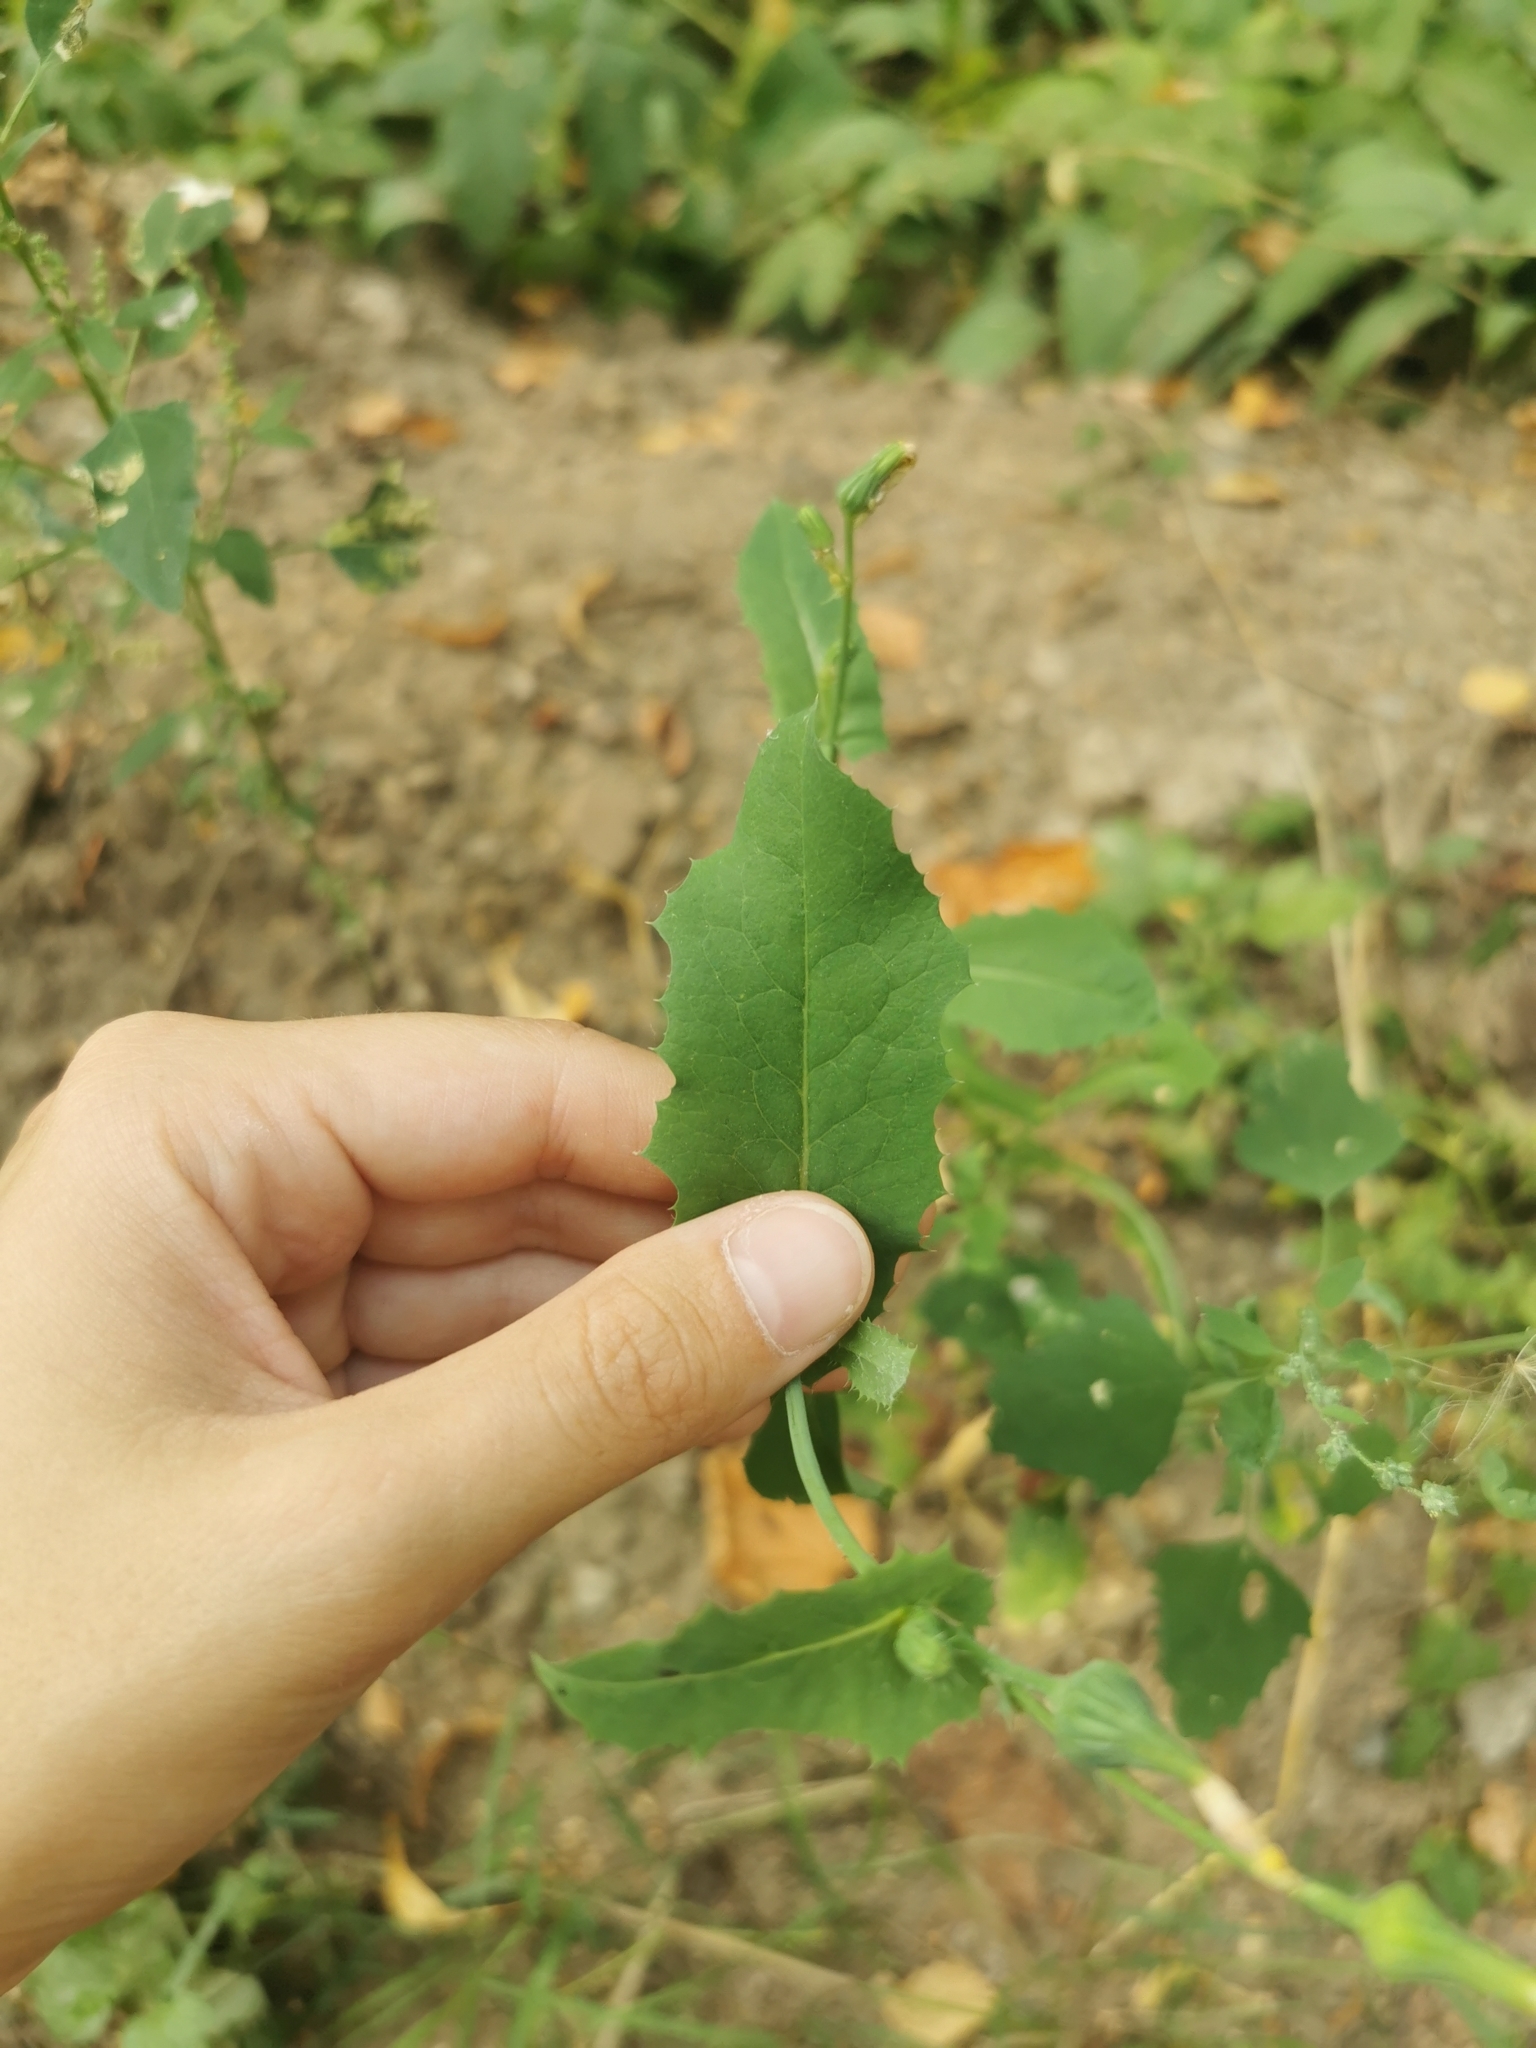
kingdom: Plantae
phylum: Tracheophyta
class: Magnoliopsida
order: Asterales
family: Asteraceae
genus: Sonchus
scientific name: Sonchus oleraceus
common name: Common sowthistle
